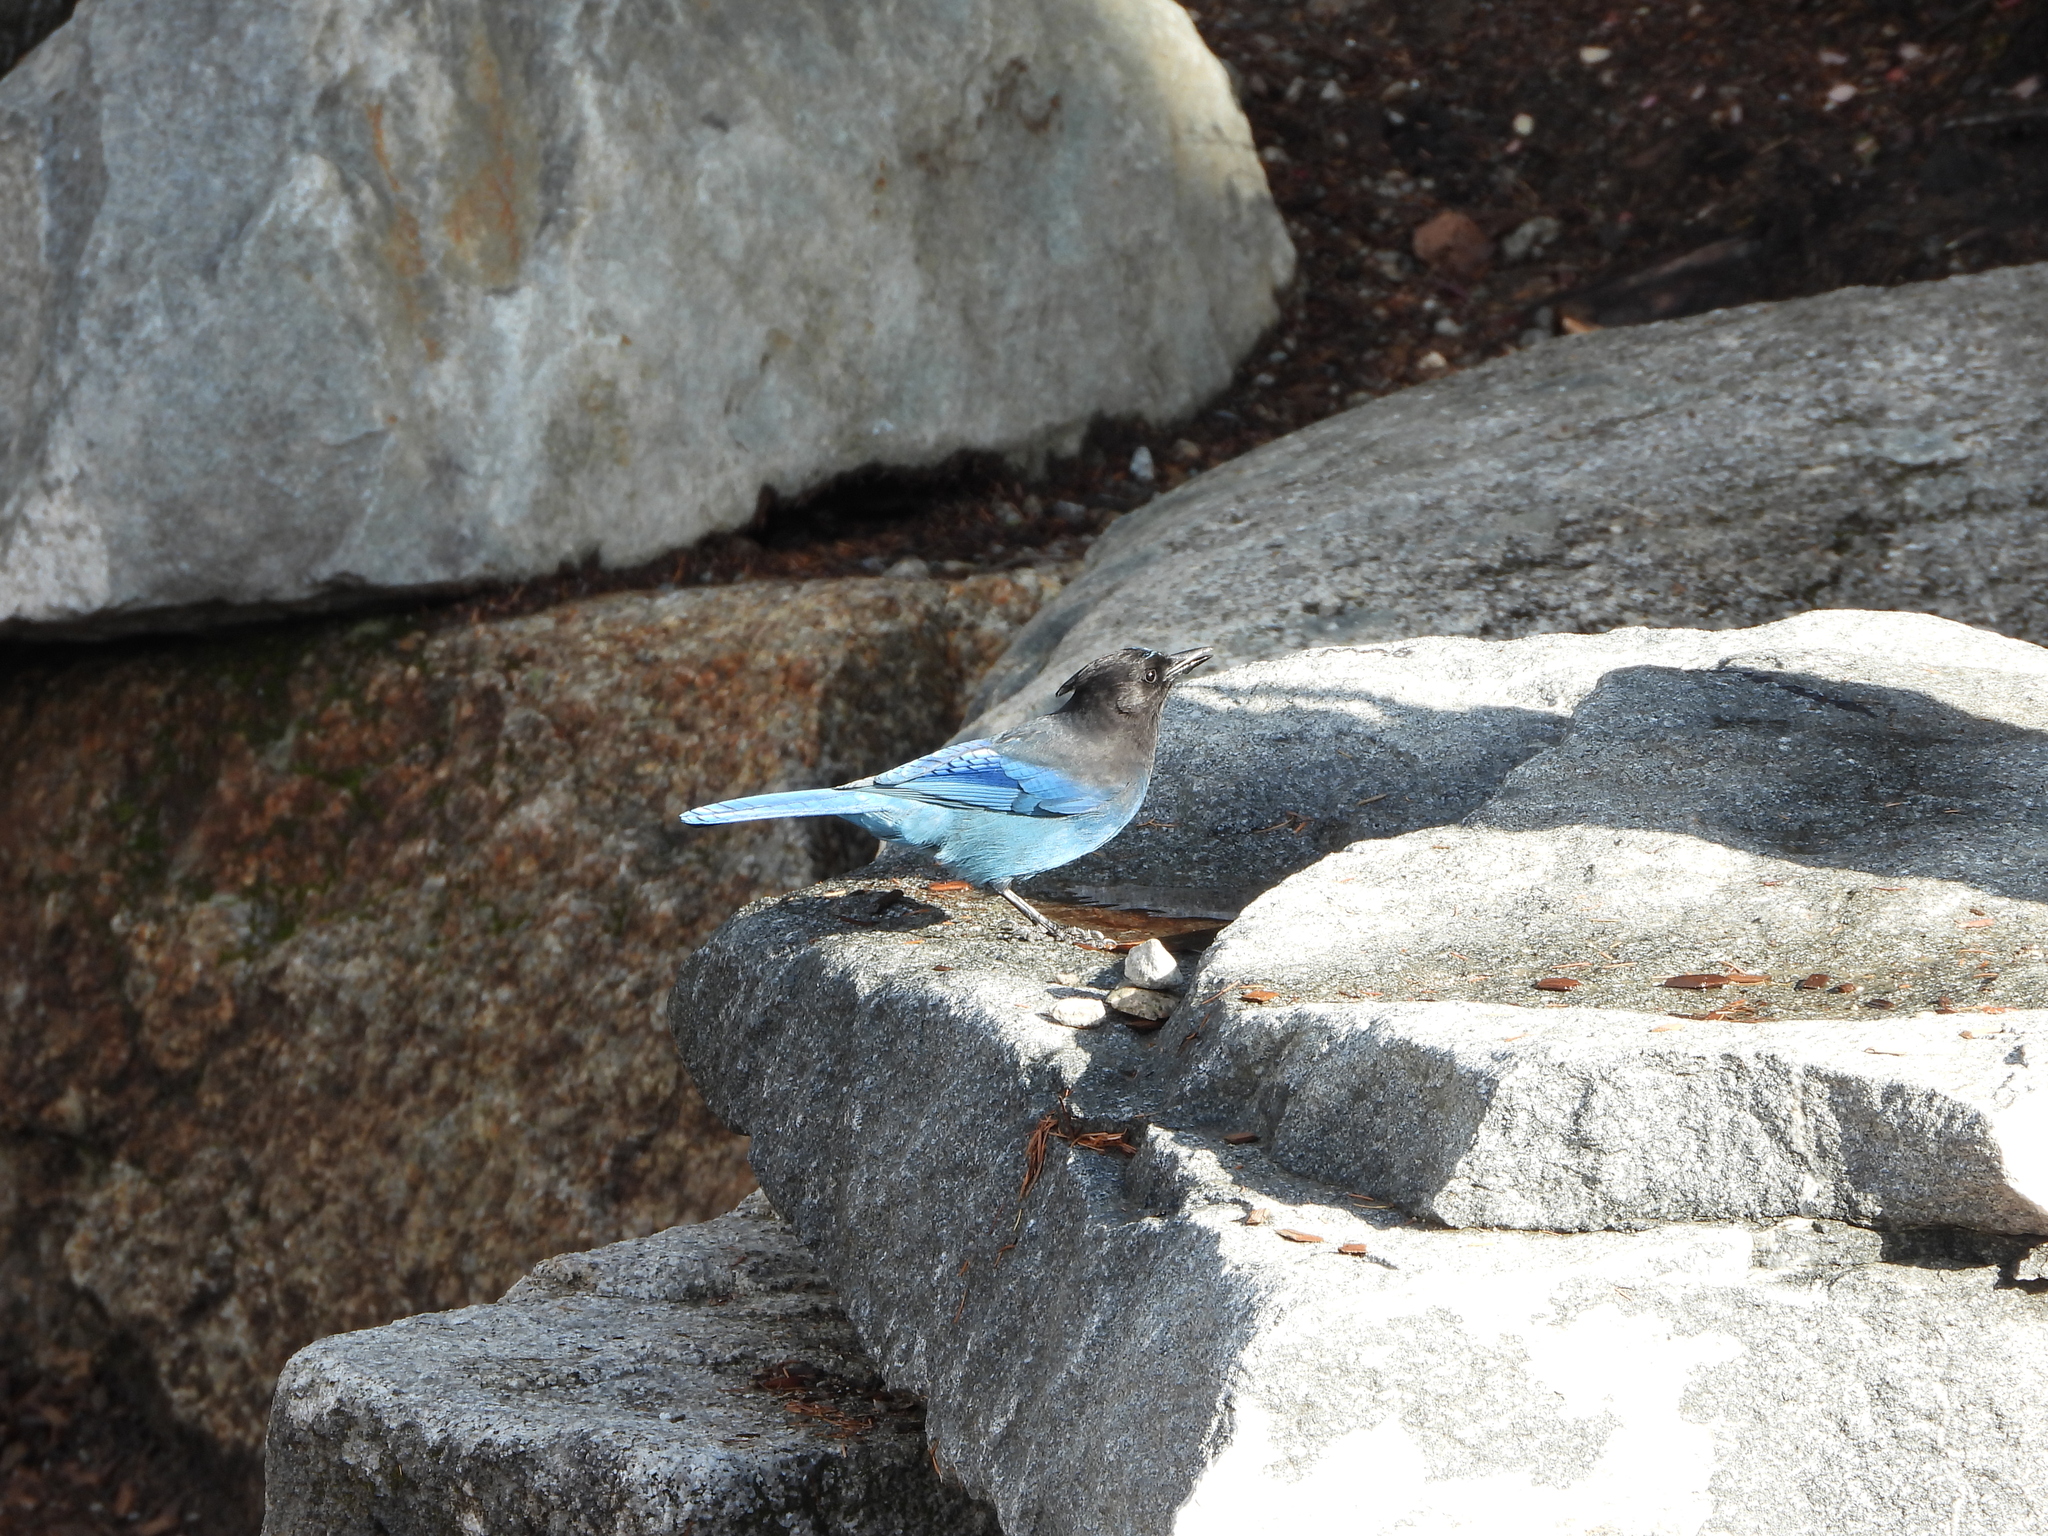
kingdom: Animalia
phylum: Chordata
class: Aves
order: Passeriformes
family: Corvidae
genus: Cyanocitta
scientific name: Cyanocitta stelleri
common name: Steller's jay
